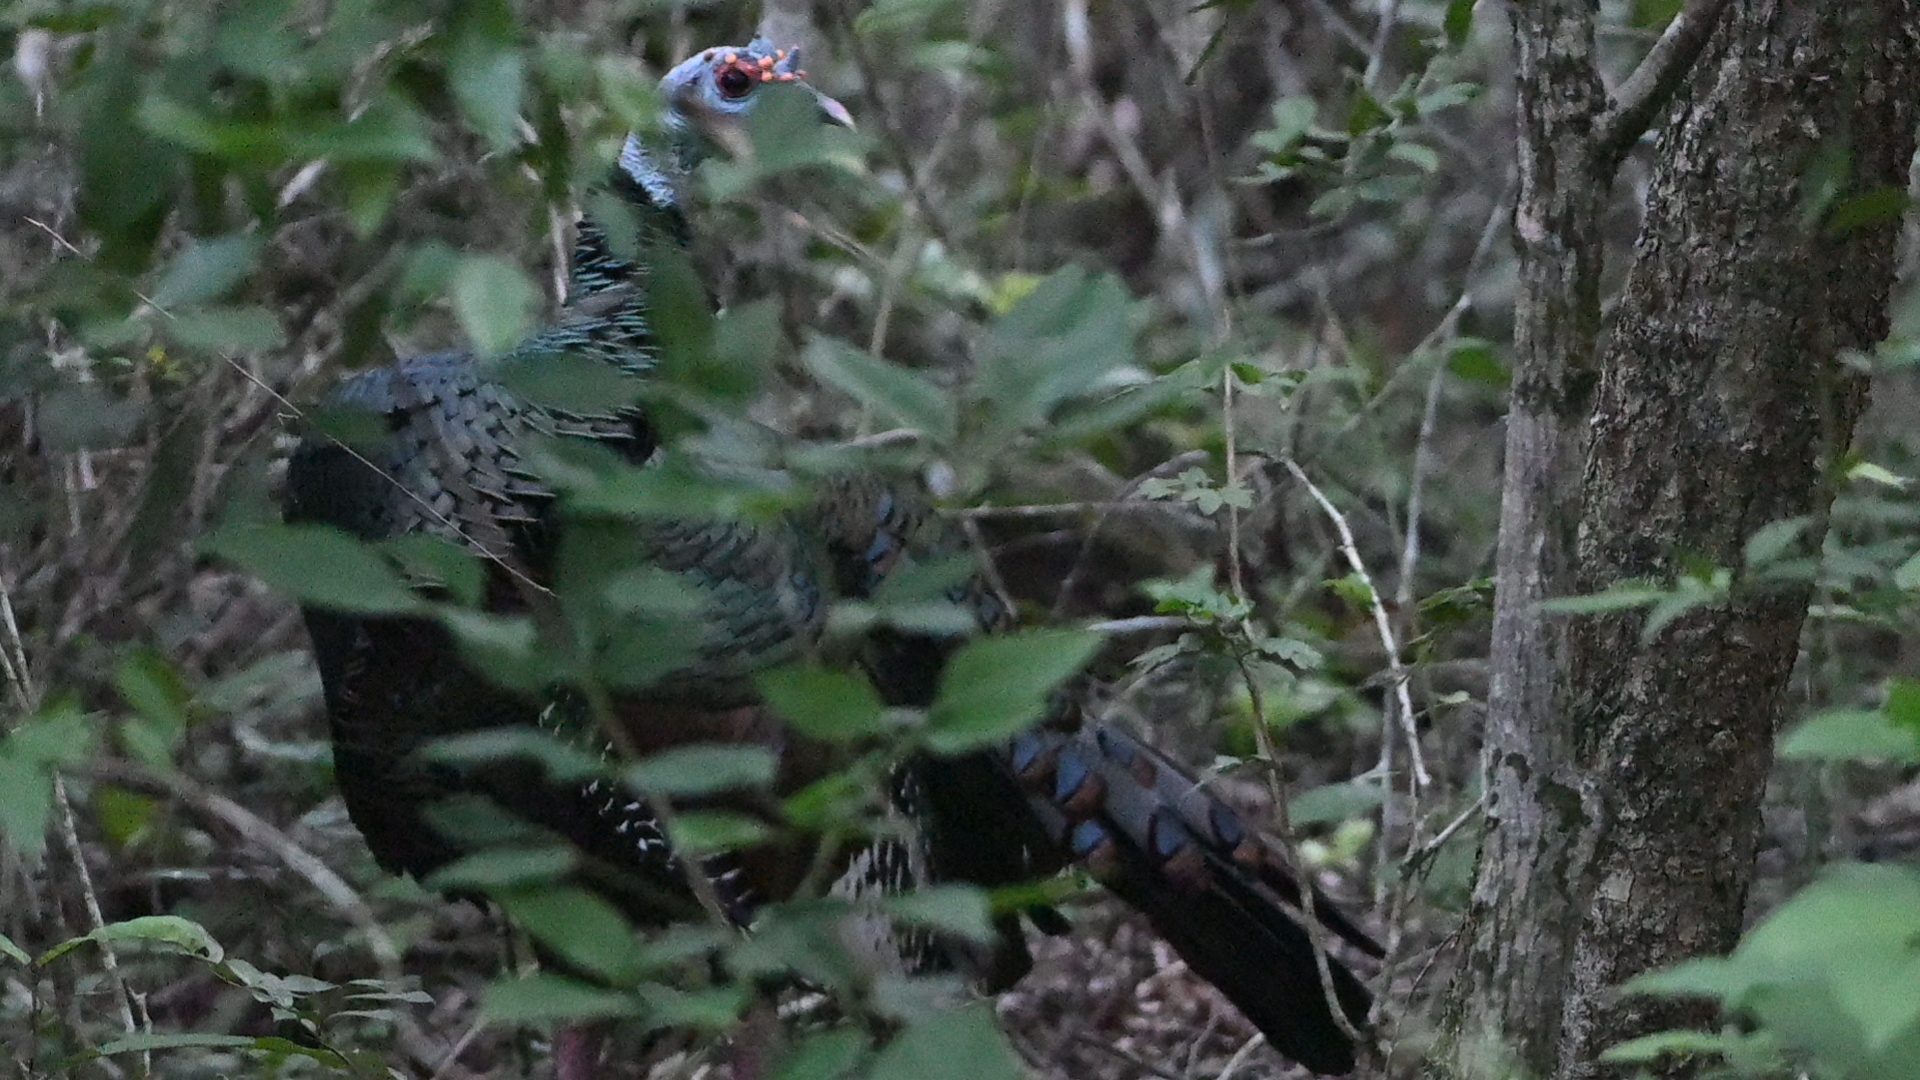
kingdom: Animalia
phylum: Chordata
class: Aves
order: Galliformes
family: Phasianidae
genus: Meleagris
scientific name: Meleagris ocellata
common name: Ocellated turkey
